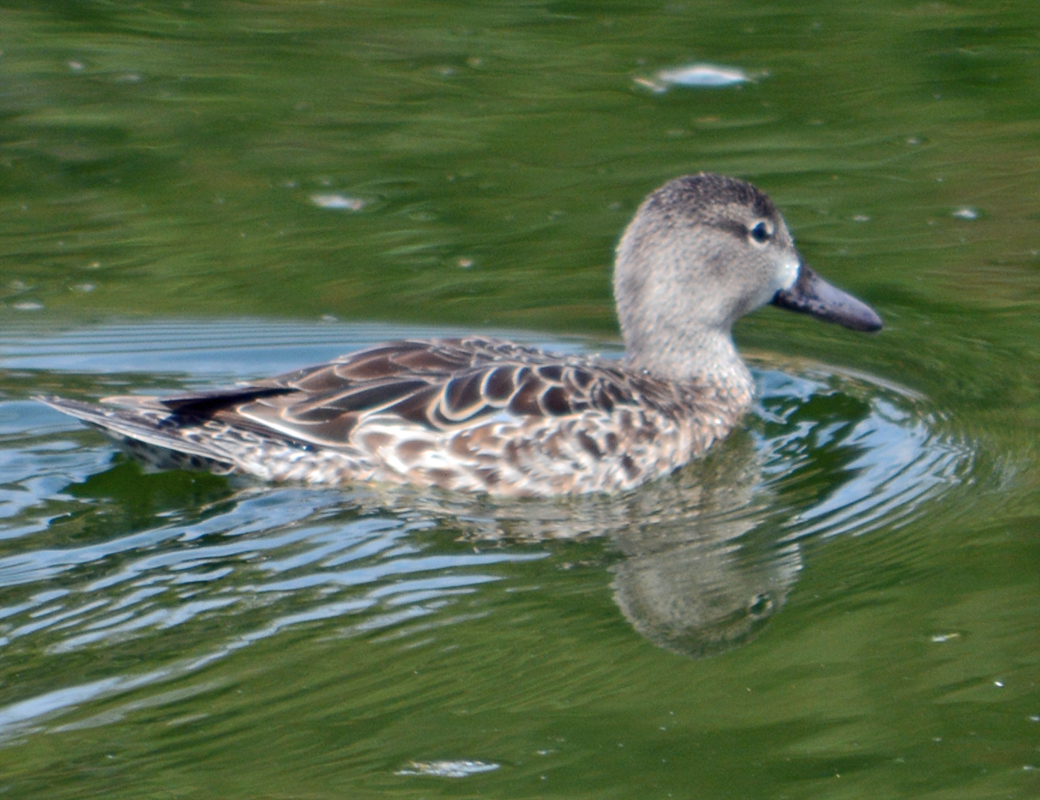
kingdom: Animalia
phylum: Chordata
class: Aves
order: Anseriformes
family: Anatidae
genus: Spatula
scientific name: Spatula discors
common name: Blue-winged teal
